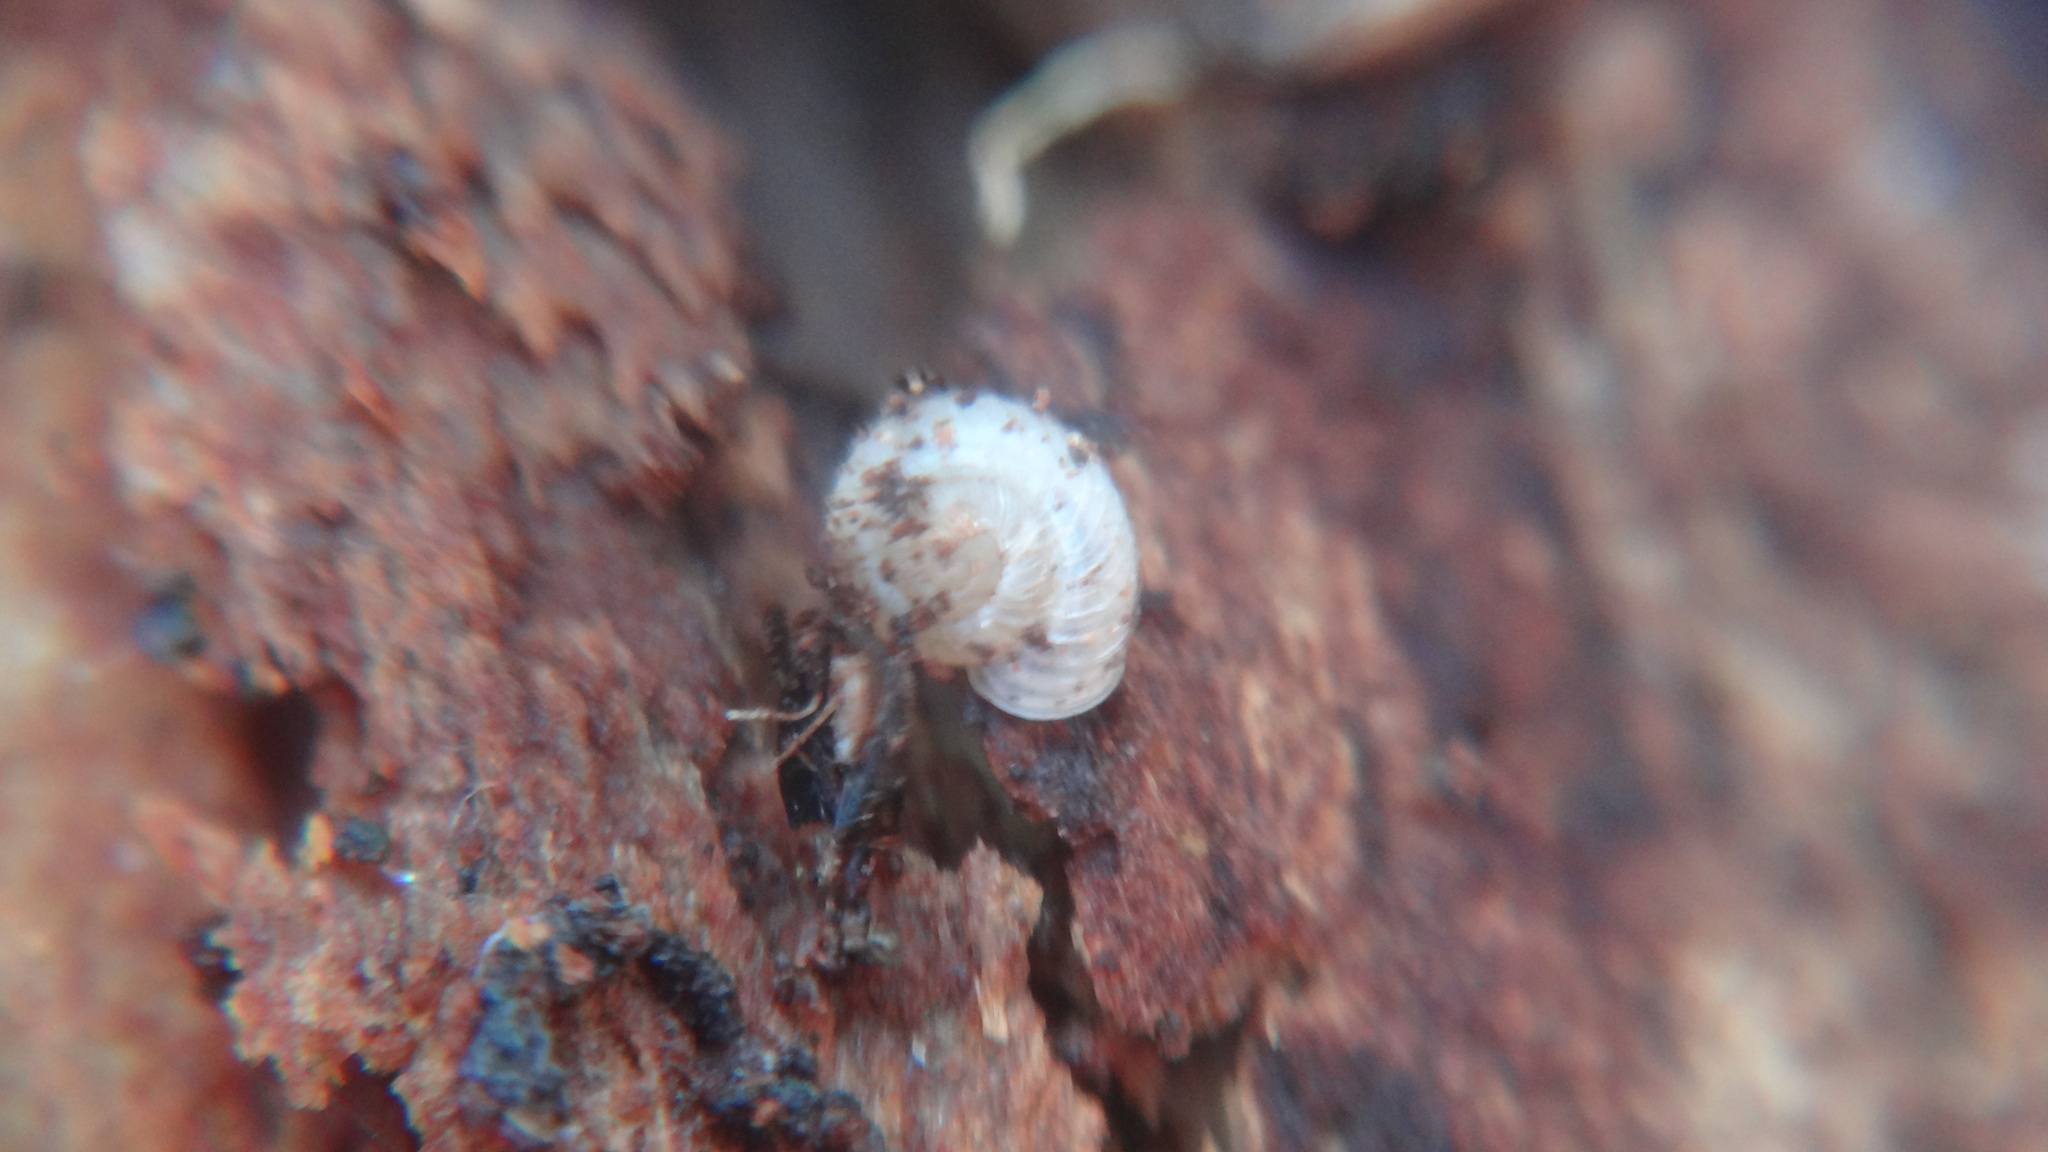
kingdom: Animalia
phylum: Mollusca
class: Gastropoda
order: Stylommatophora
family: Valloniidae
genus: Vallonia
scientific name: Vallonia costata
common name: Ribbed grass snail
